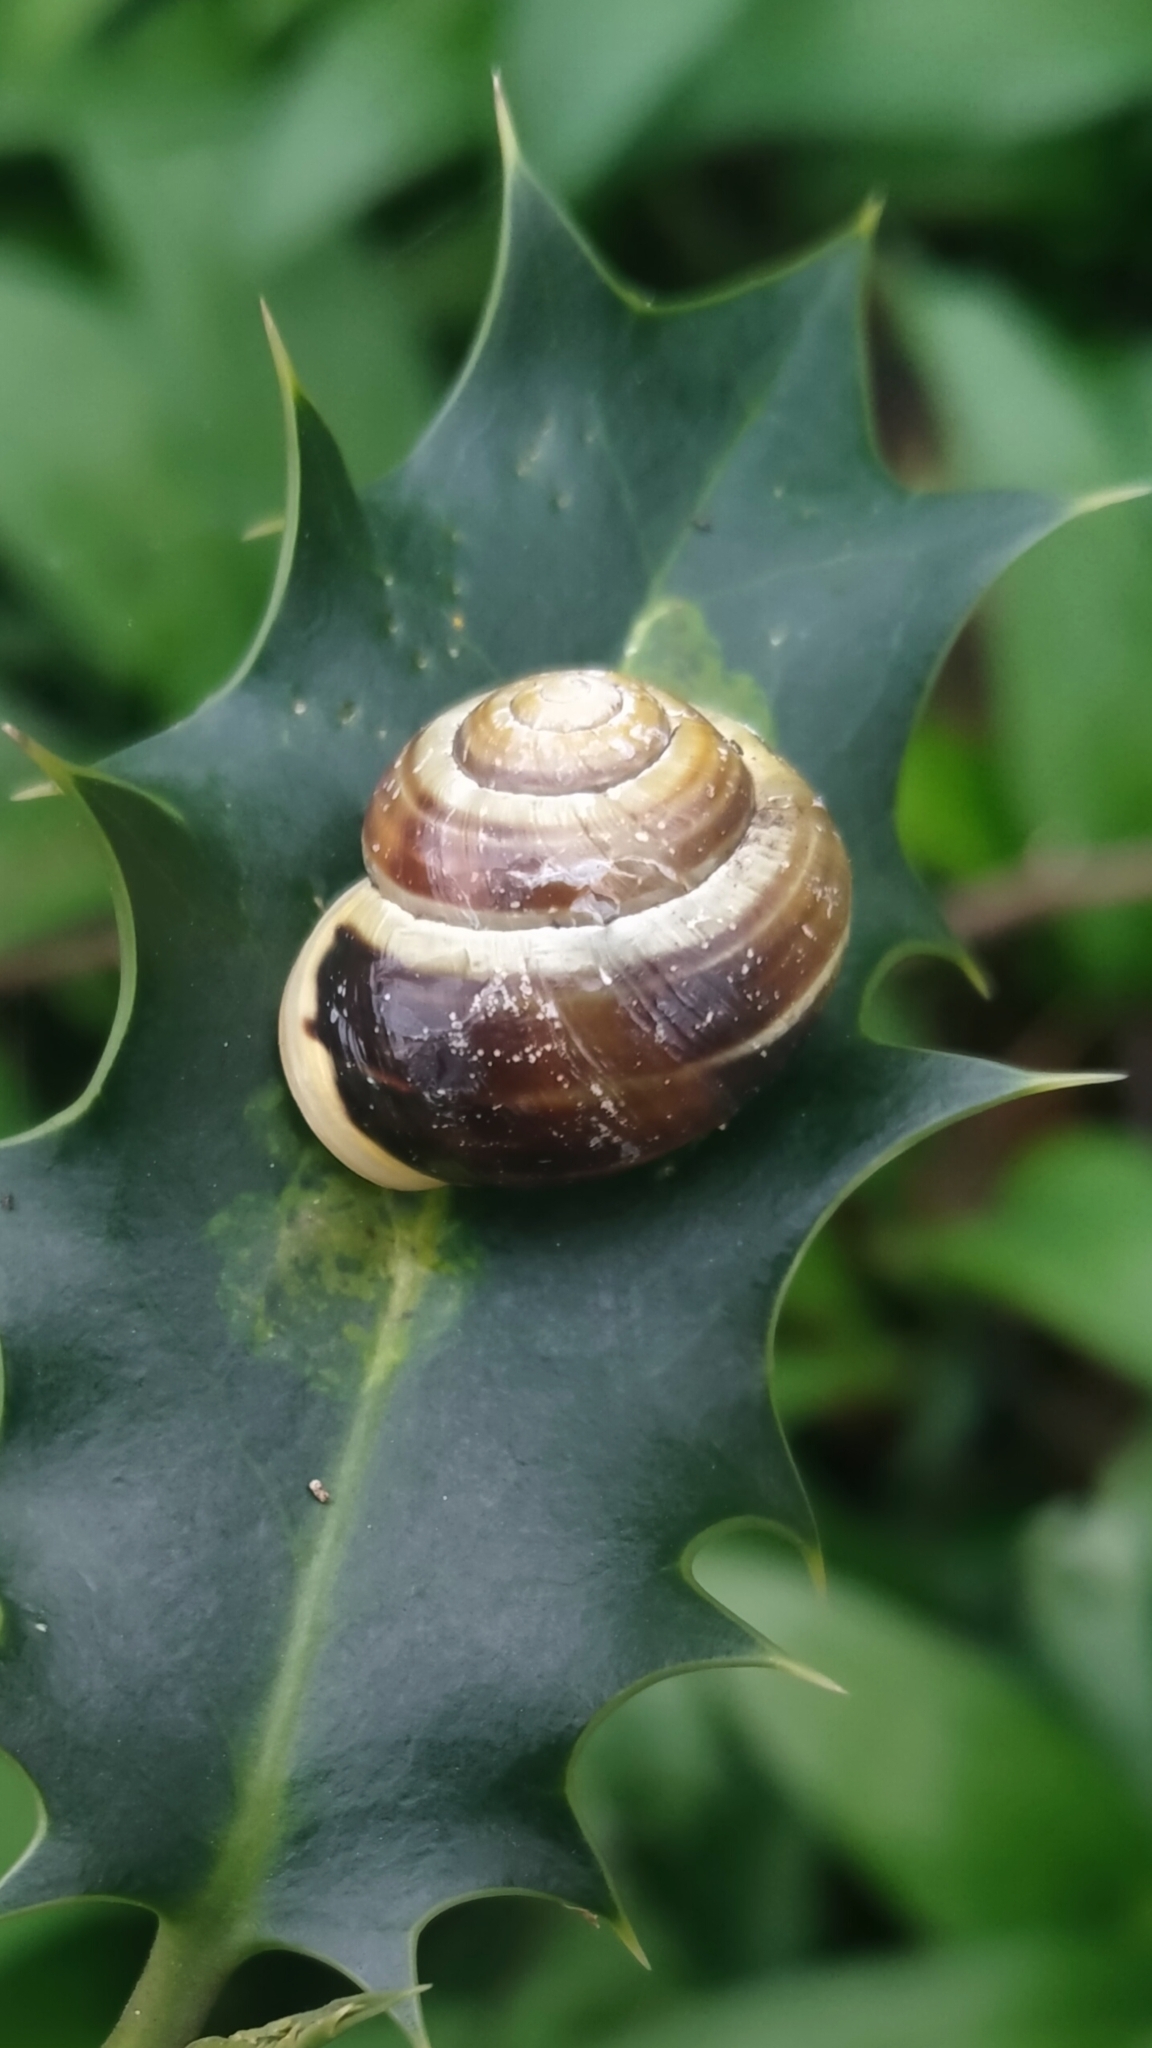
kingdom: Animalia
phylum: Mollusca
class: Gastropoda
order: Stylommatophora
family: Helicidae
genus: Cepaea
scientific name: Cepaea hortensis
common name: White-lip gardensnail
